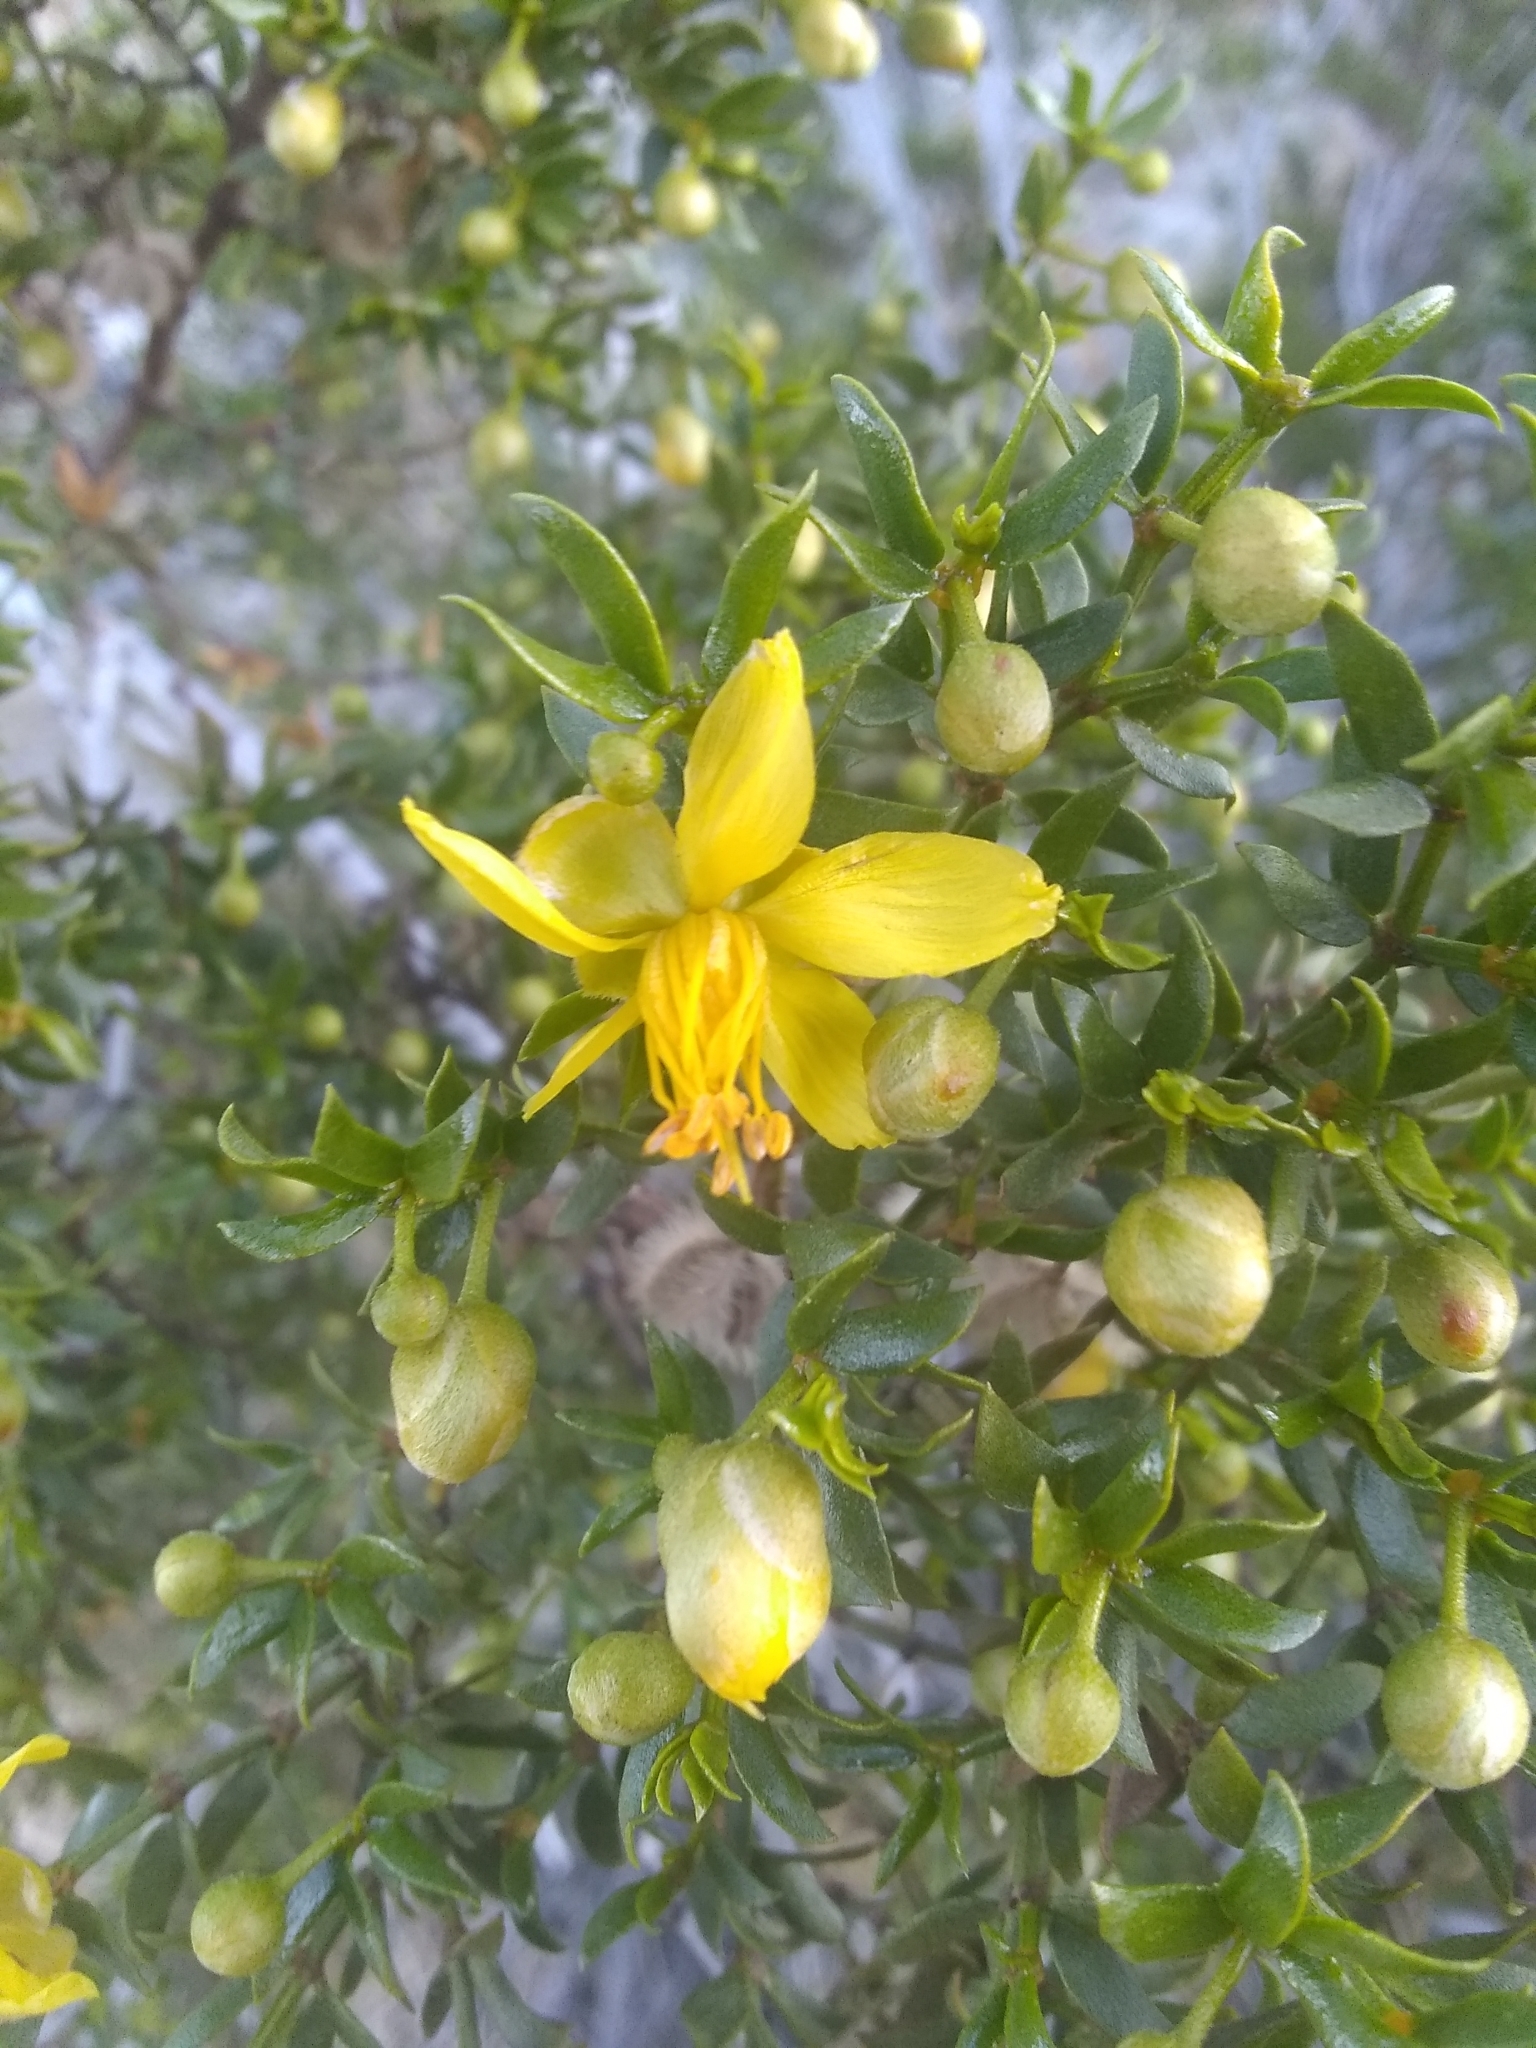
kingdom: Plantae
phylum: Tracheophyta
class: Magnoliopsida
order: Zygophyllales
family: Zygophyllaceae
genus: Larrea
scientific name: Larrea tridentata
